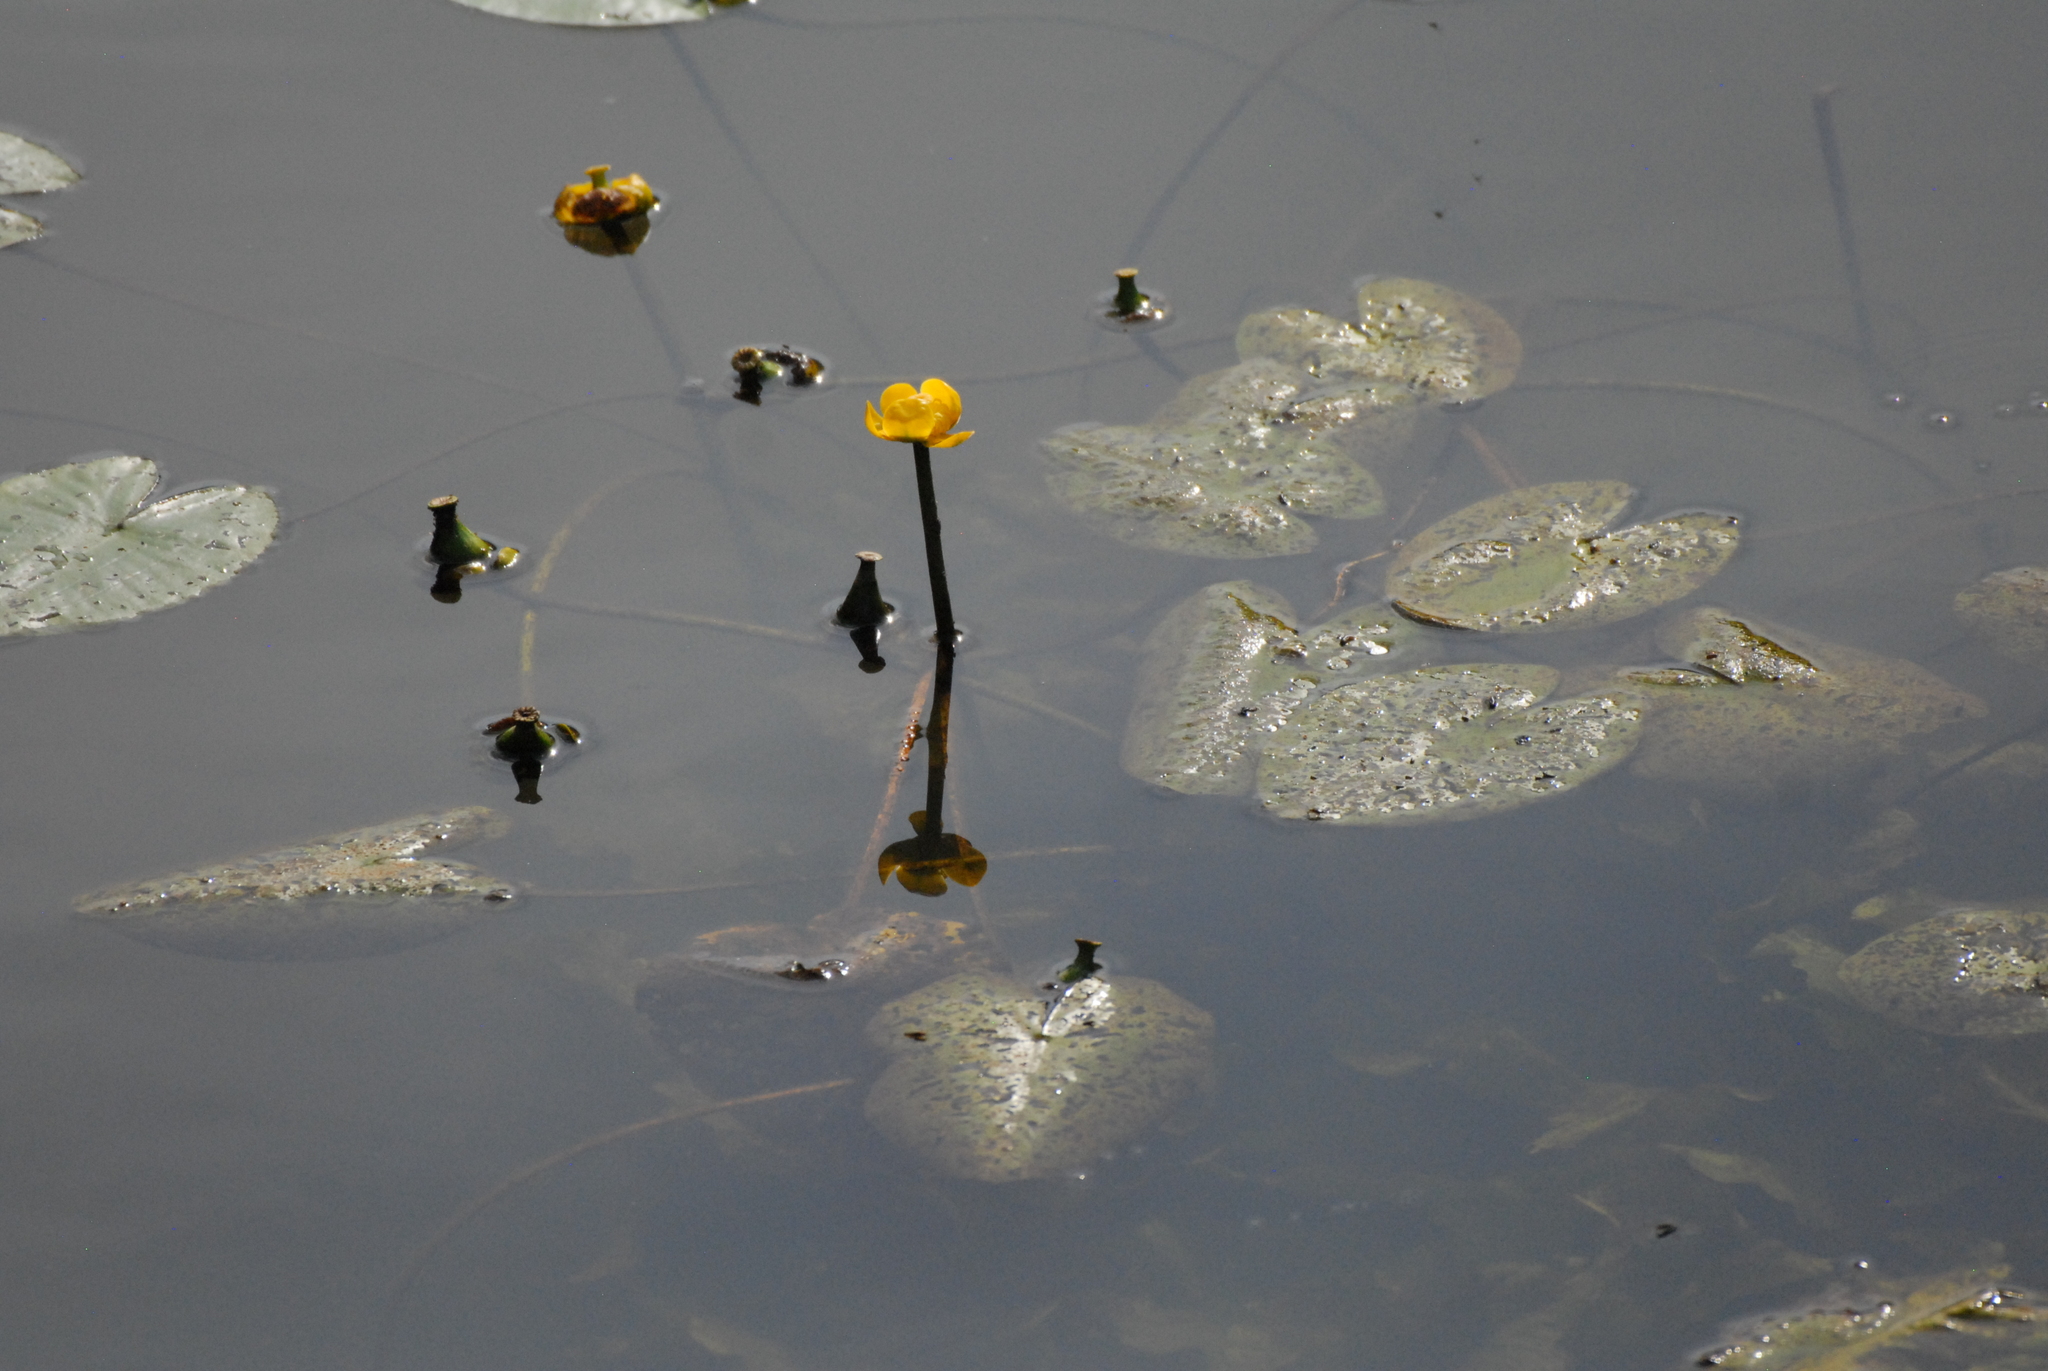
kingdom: Plantae
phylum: Tracheophyta
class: Magnoliopsida
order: Nymphaeales
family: Nymphaeaceae
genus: Nuphar
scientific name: Nuphar lutea
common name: Yellow water-lily
